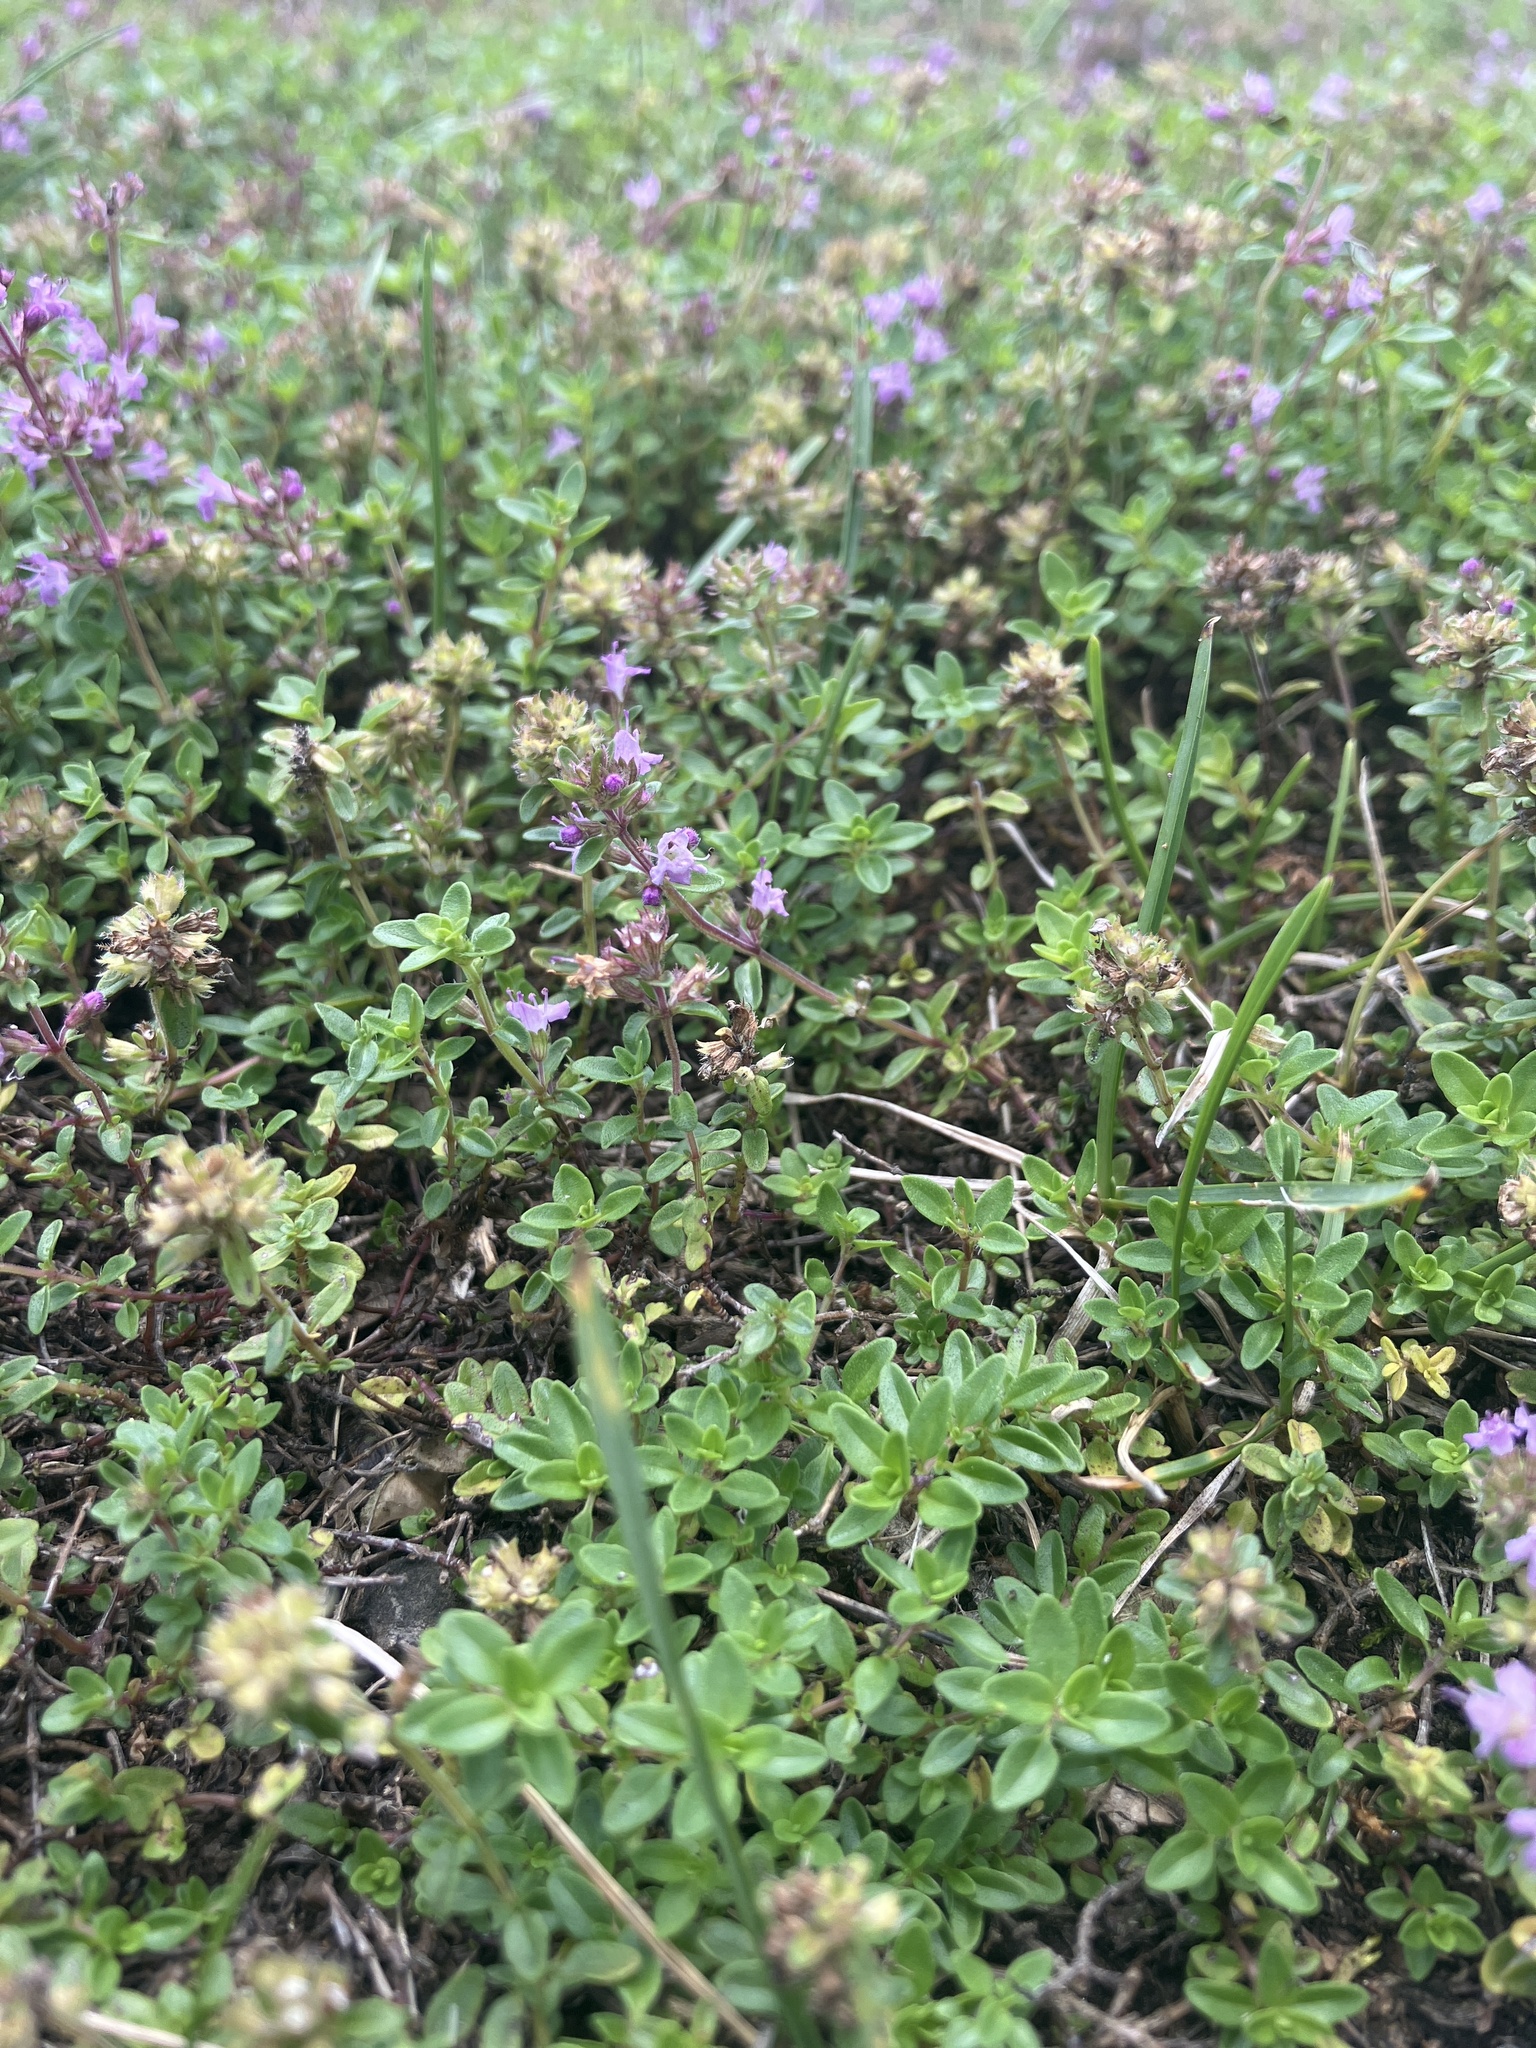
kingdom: Plantae
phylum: Tracheophyta
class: Magnoliopsida
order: Lamiales
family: Lamiaceae
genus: Thymus
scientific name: Thymus pulegioides
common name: Large thyme
